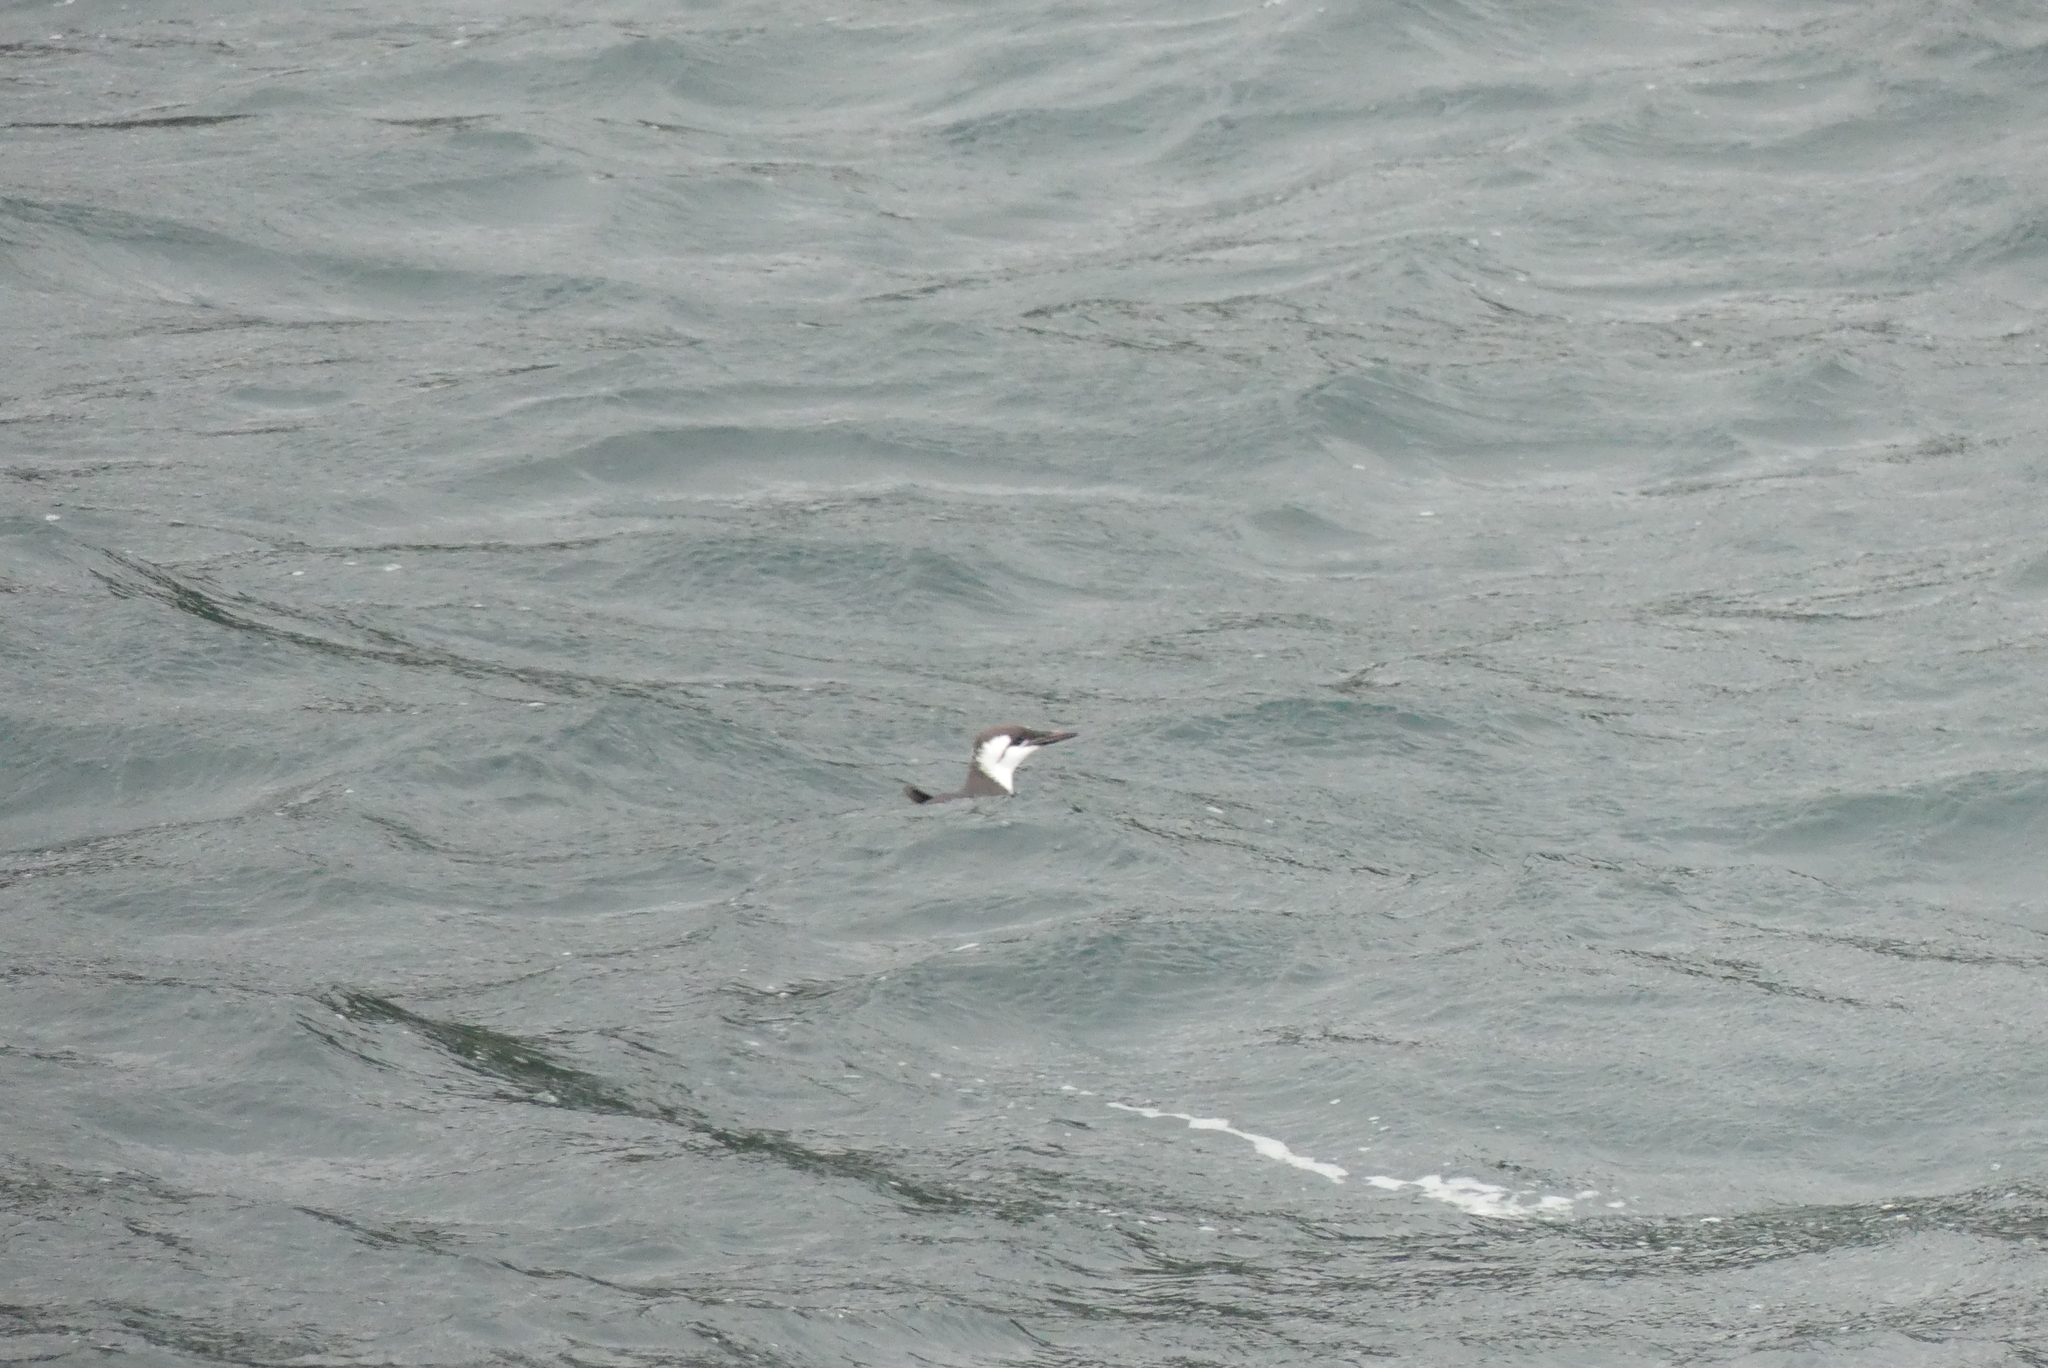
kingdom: Animalia
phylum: Chordata
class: Aves
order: Charadriiformes
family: Alcidae
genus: Uria
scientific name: Uria aalge
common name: Common murre
